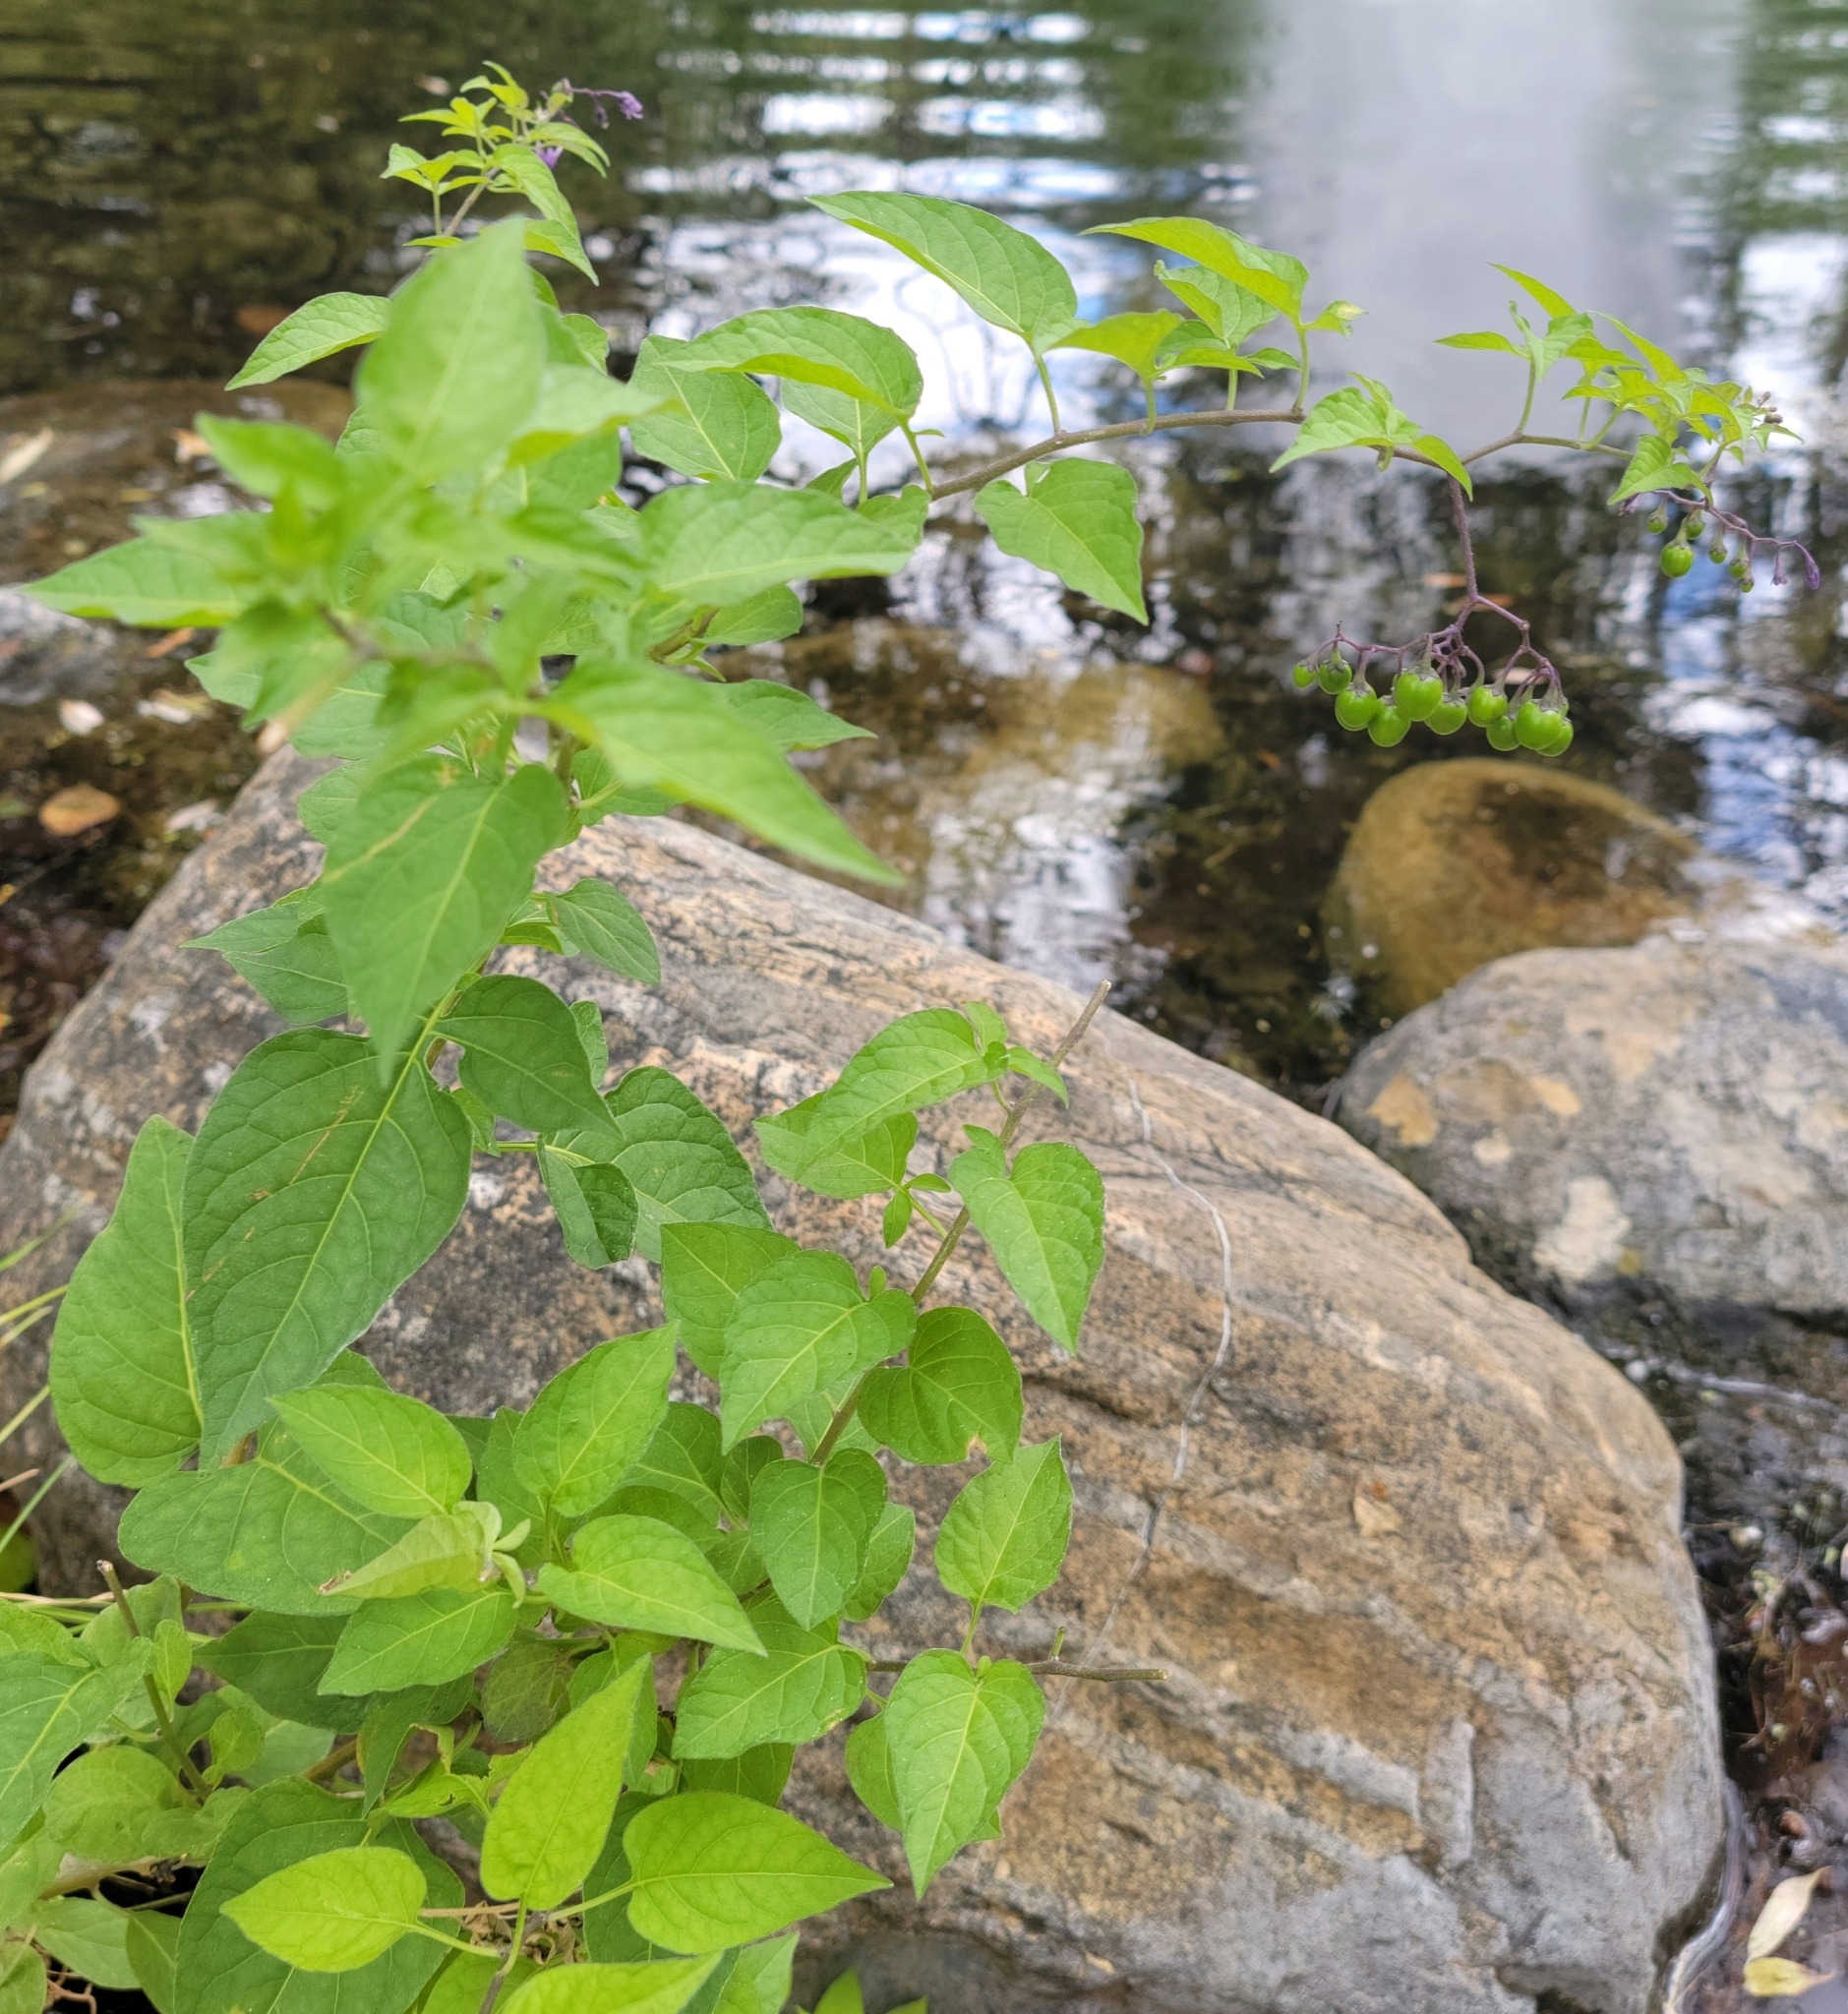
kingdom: Plantae
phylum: Tracheophyta
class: Magnoliopsida
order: Solanales
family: Solanaceae
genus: Solanum
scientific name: Solanum dulcamara
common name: Climbing nightshade
